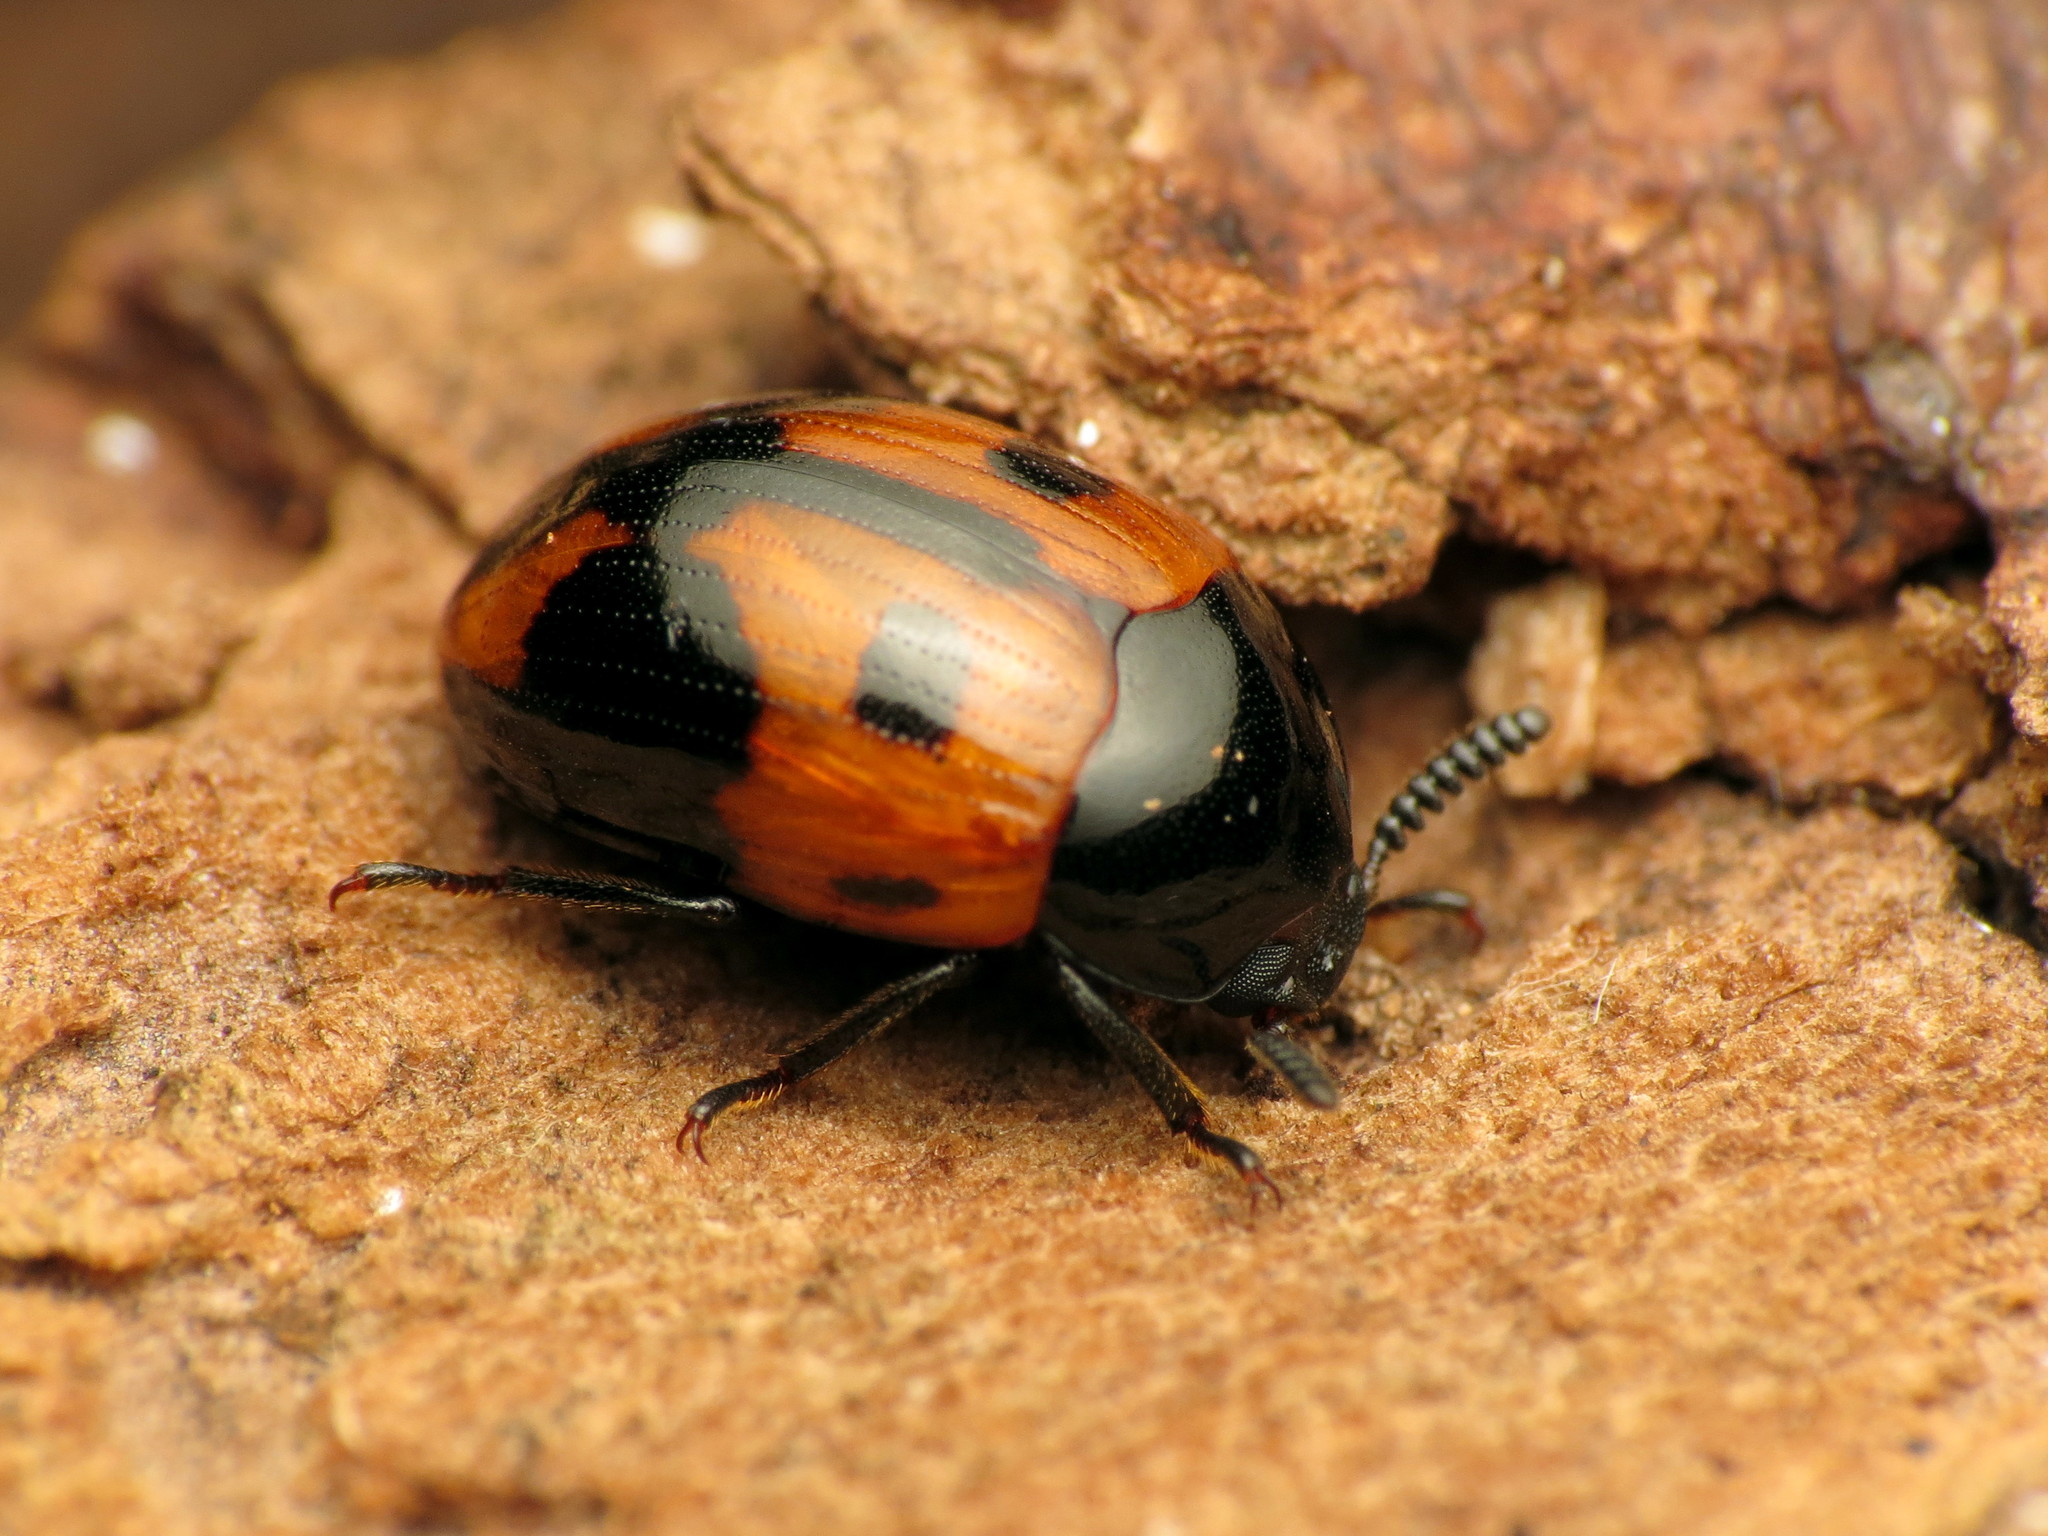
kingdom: Animalia
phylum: Arthropoda
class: Insecta
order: Coleoptera
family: Tenebrionidae
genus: Diaperis
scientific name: Diaperis maculata
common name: Darkling beetle
